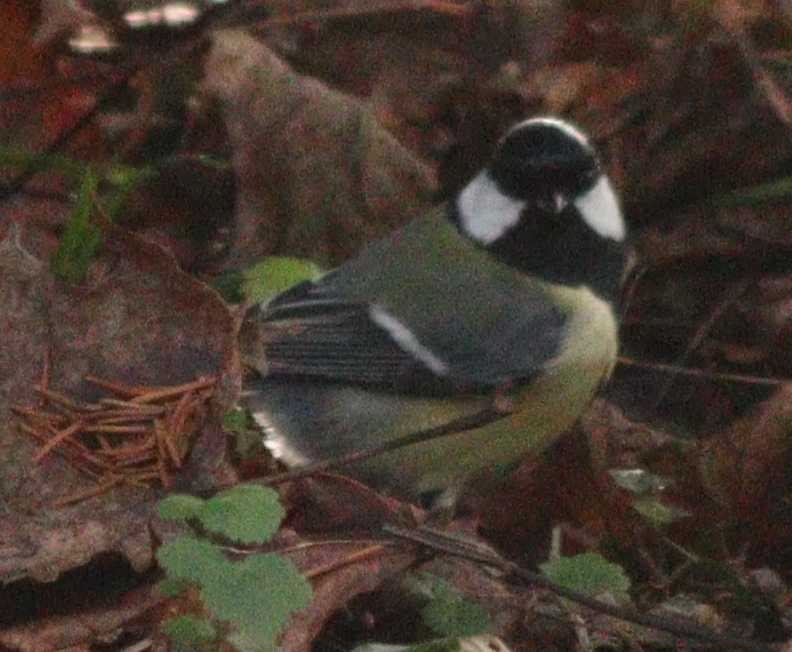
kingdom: Animalia
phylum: Chordata
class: Aves
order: Passeriformes
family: Paridae
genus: Parus
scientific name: Parus major
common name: Great tit
